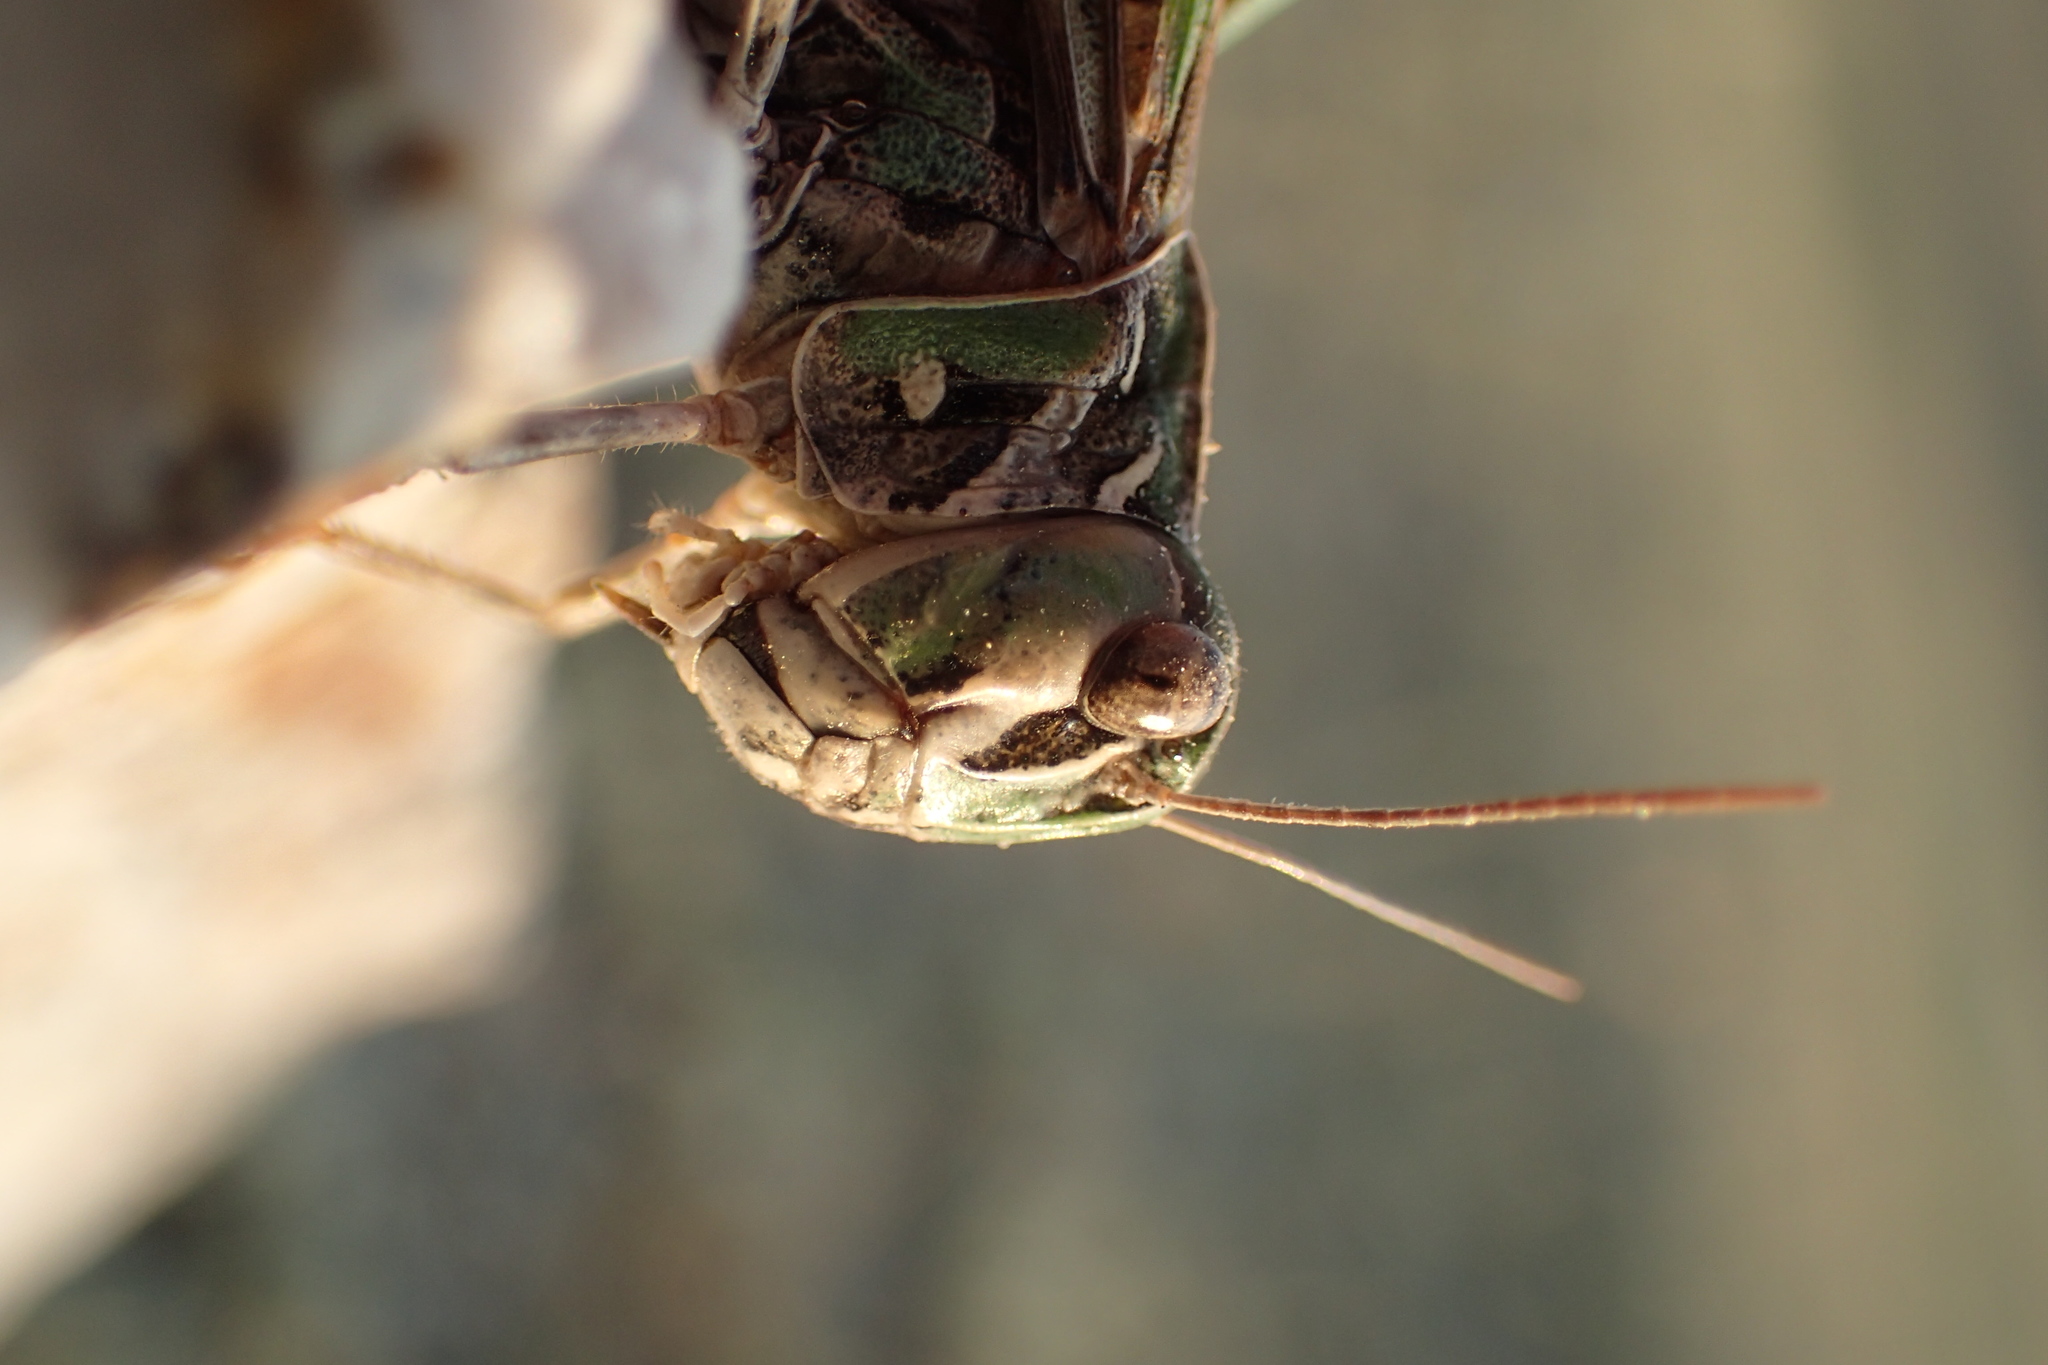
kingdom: Animalia
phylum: Arthropoda
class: Insecta
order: Orthoptera
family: Acrididae
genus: Oedaleus
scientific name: Oedaleus decorus
